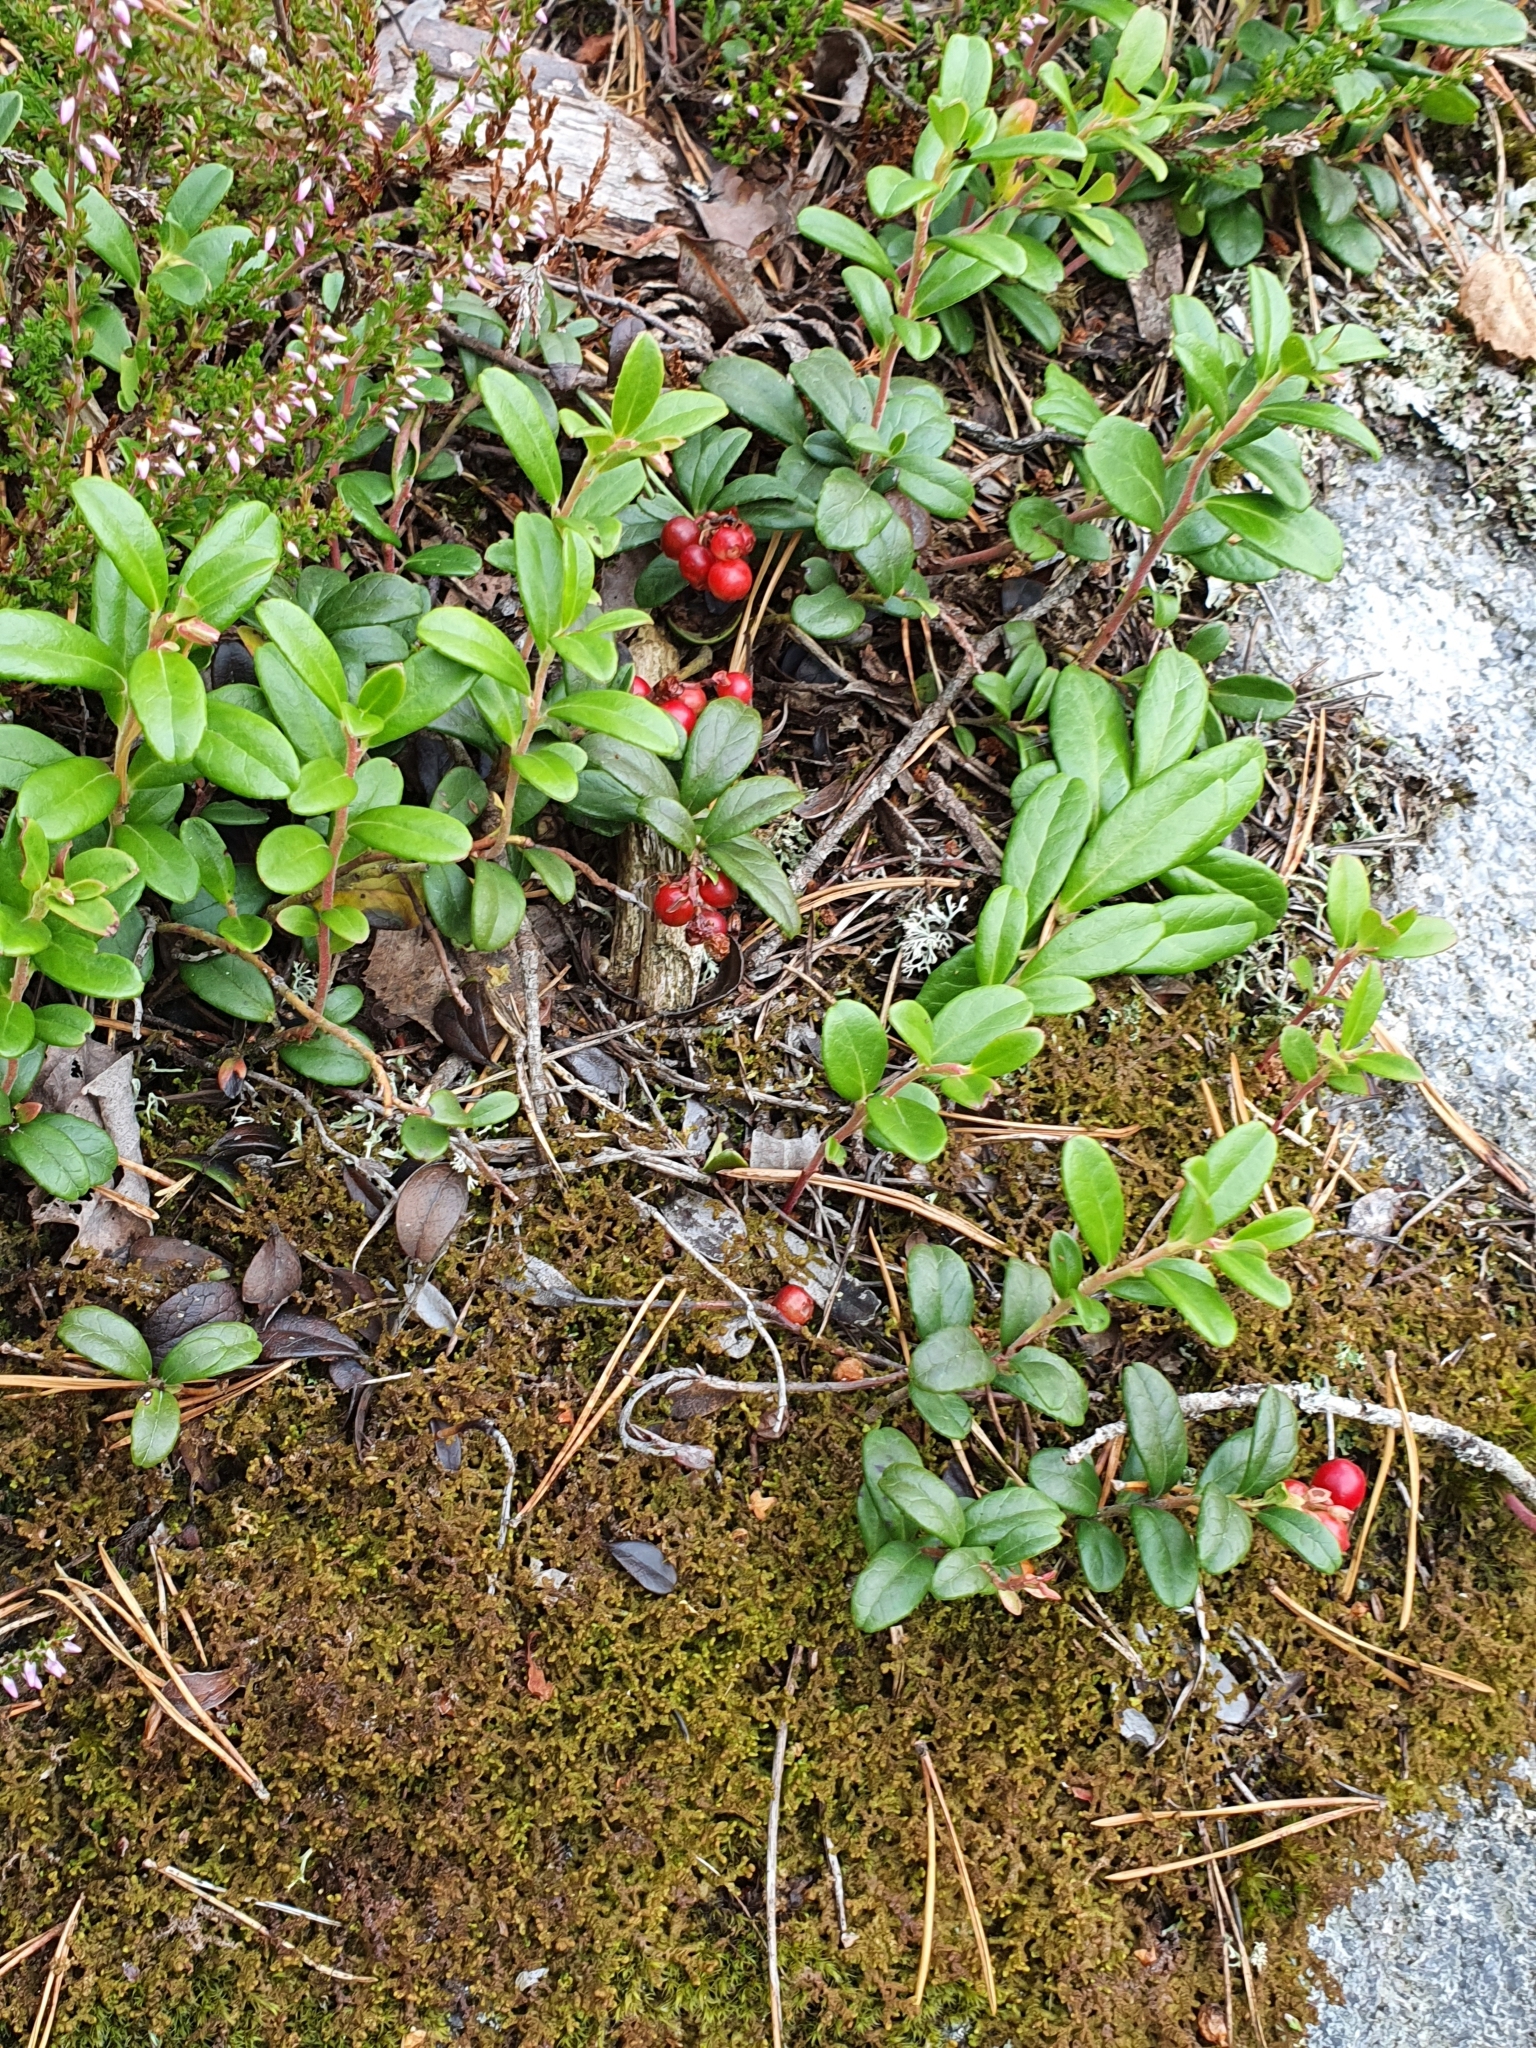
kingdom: Plantae
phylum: Tracheophyta
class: Magnoliopsida
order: Ericales
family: Ericaceae
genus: Vaccinium
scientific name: Vaccinium vitis-idaea
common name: Cowberry
